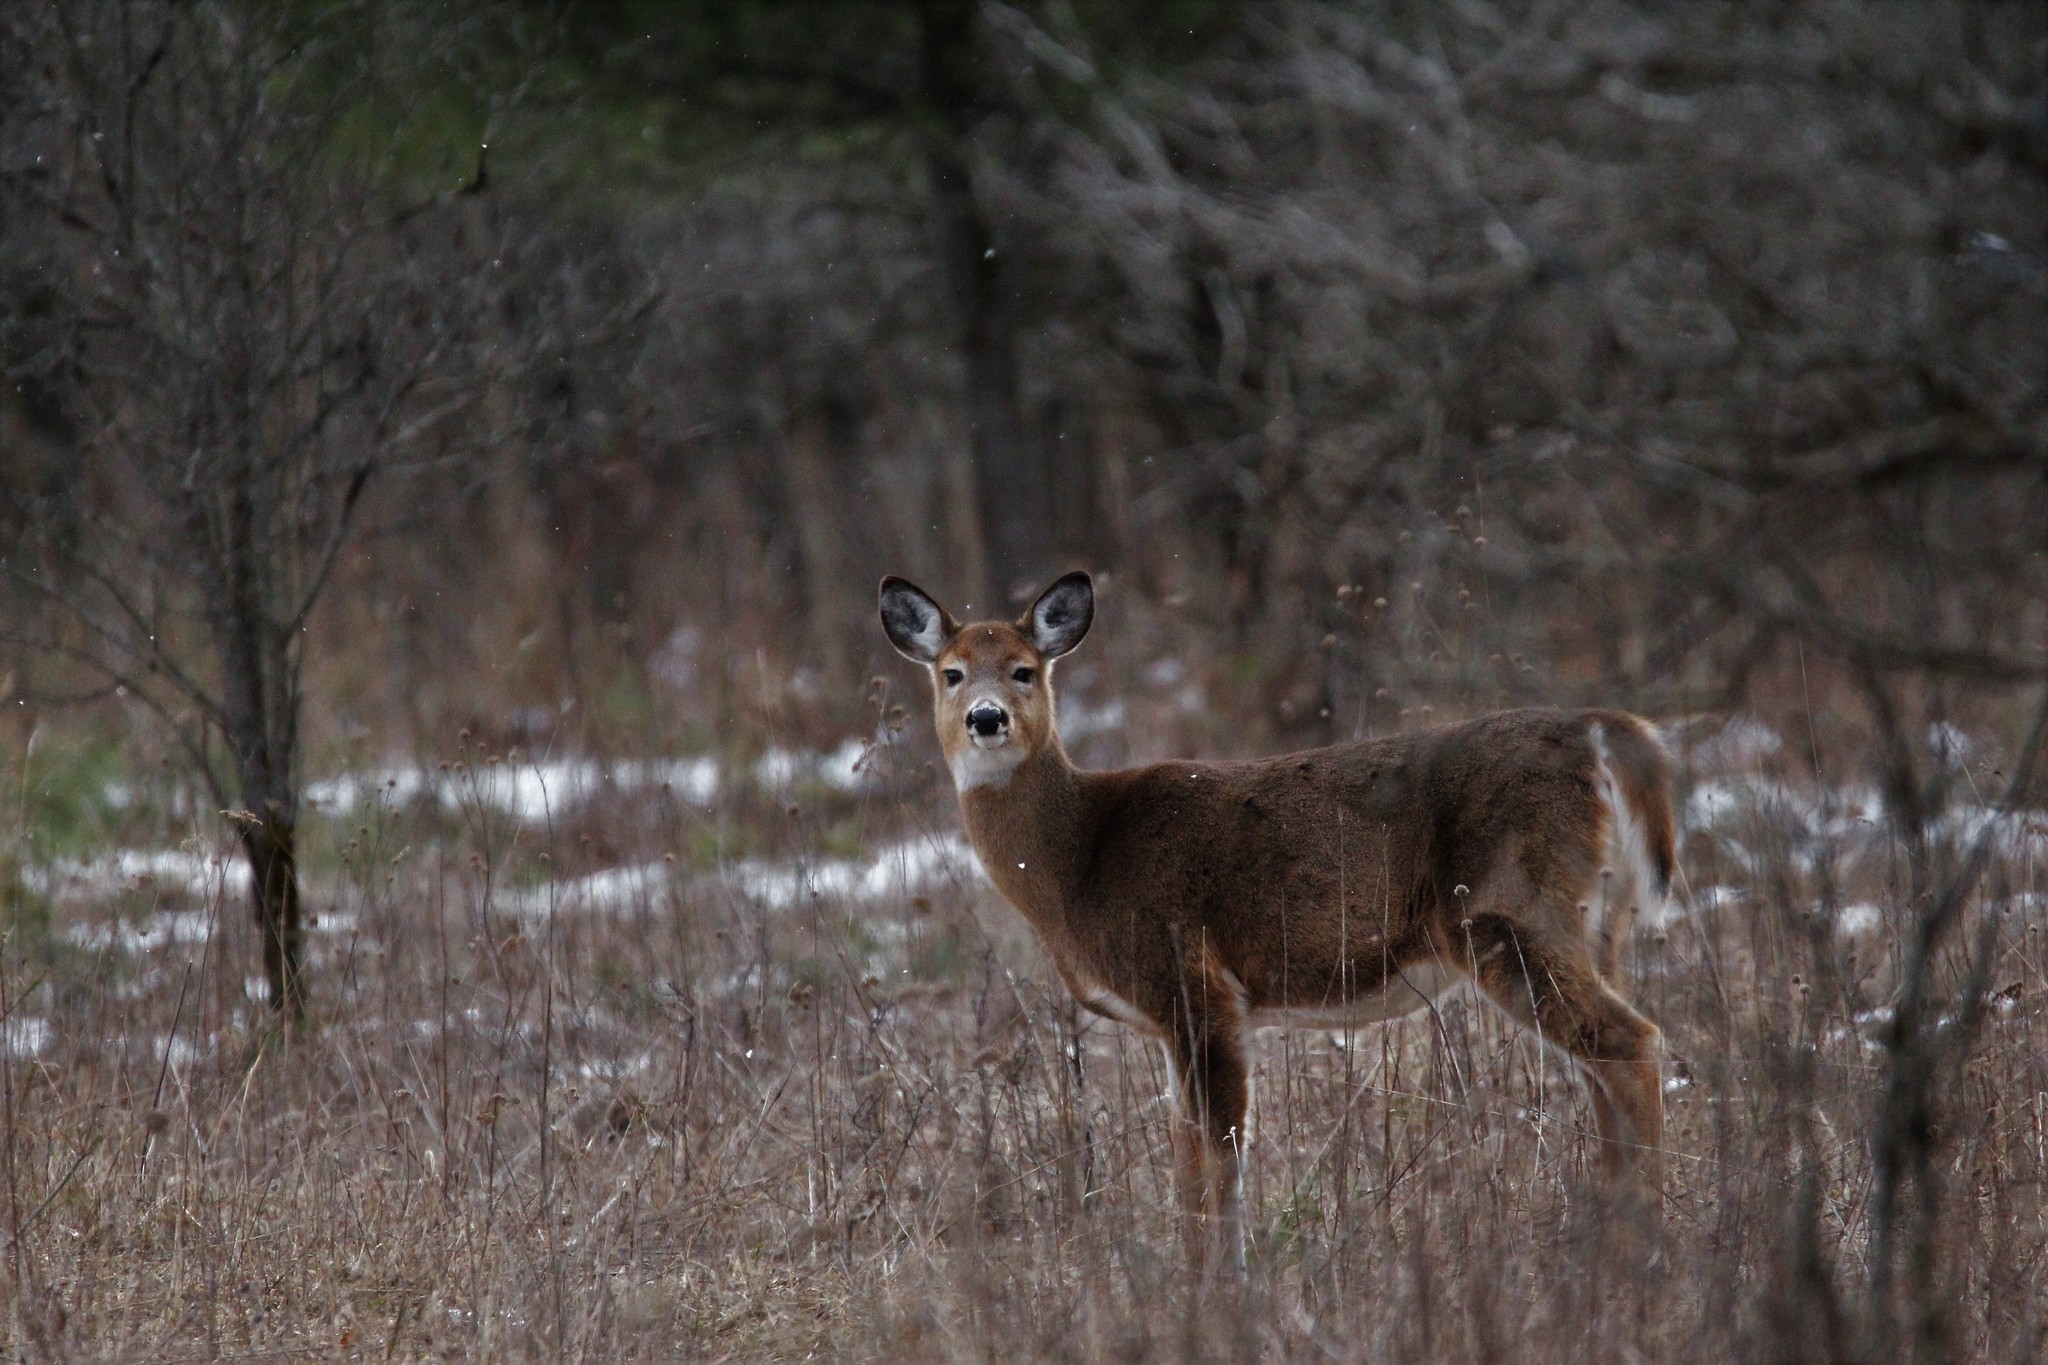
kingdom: Animalia
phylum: Chordata
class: Mammalia
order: Artiodactyla
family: Cervidae
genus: Odocoileus
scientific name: Odocoileus virginianus
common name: White-tailed deer
